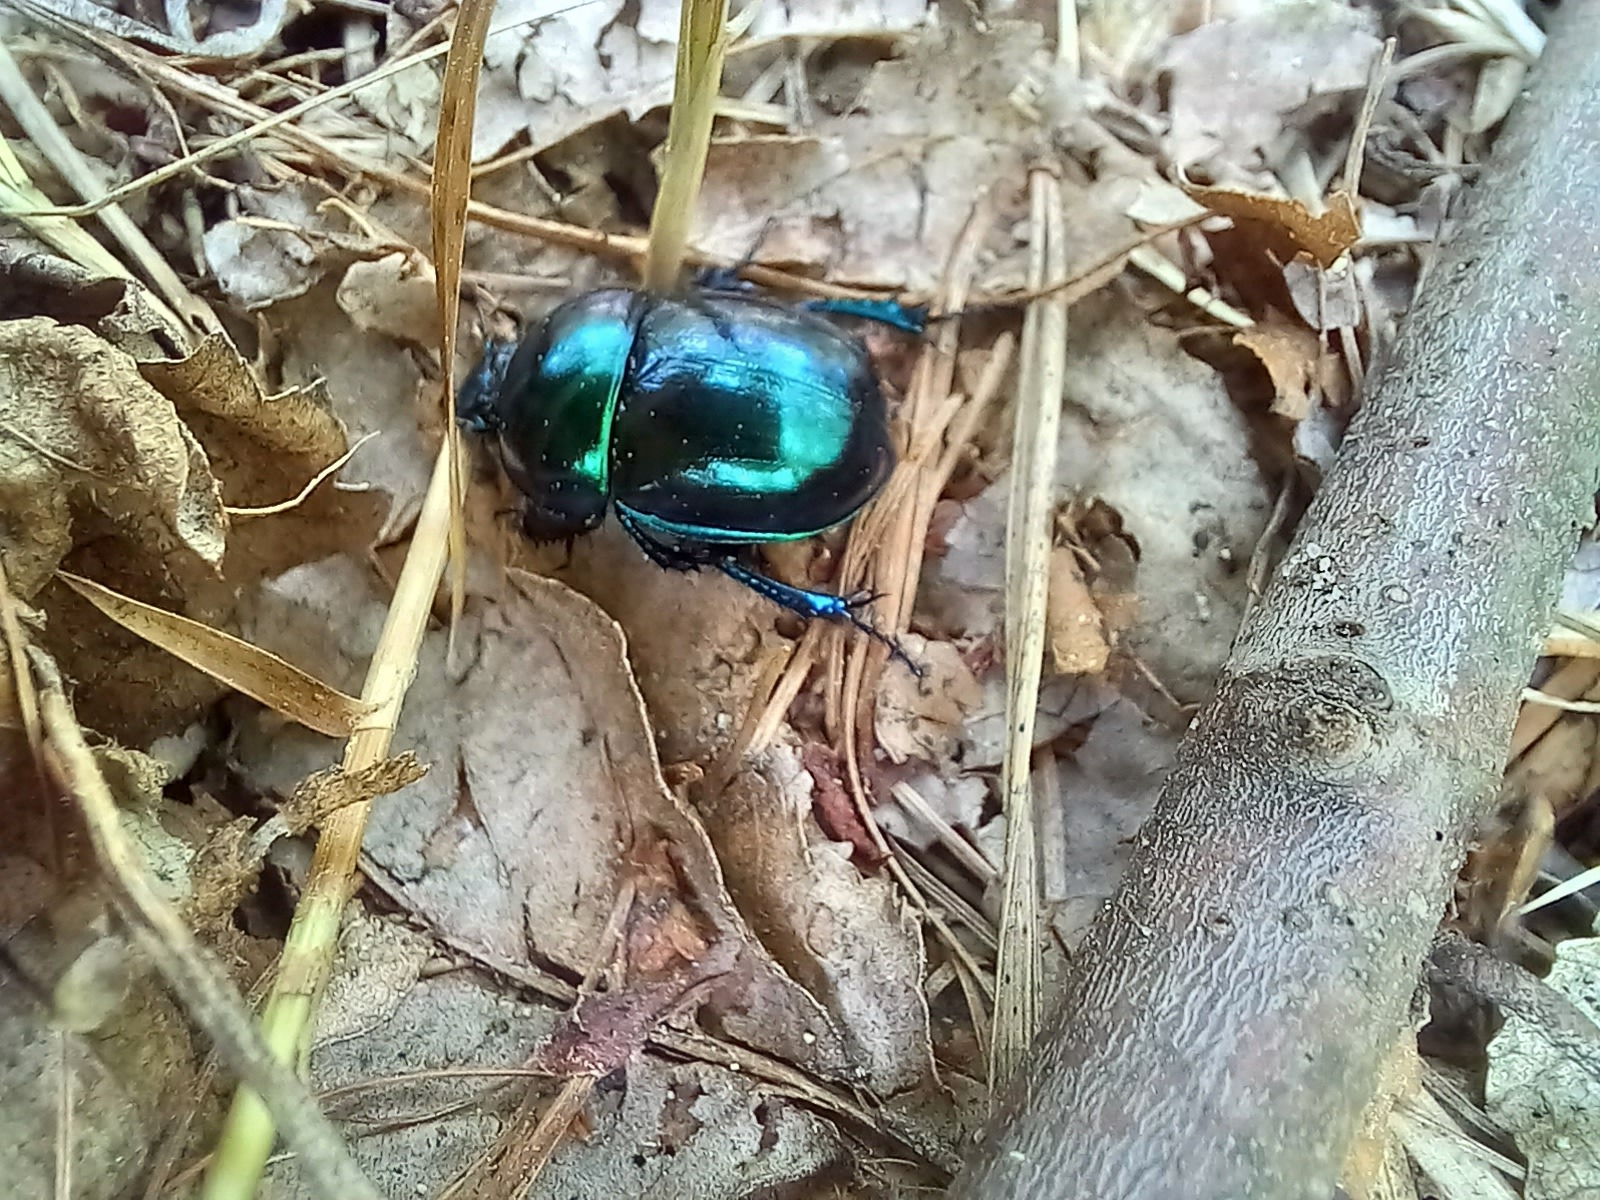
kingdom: Animalia
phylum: Arthropoda
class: Insecta
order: Coleoptera
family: Geotrupidae
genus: Trypocopris
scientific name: Trypocopris vernalis
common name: Spring dumbledor
